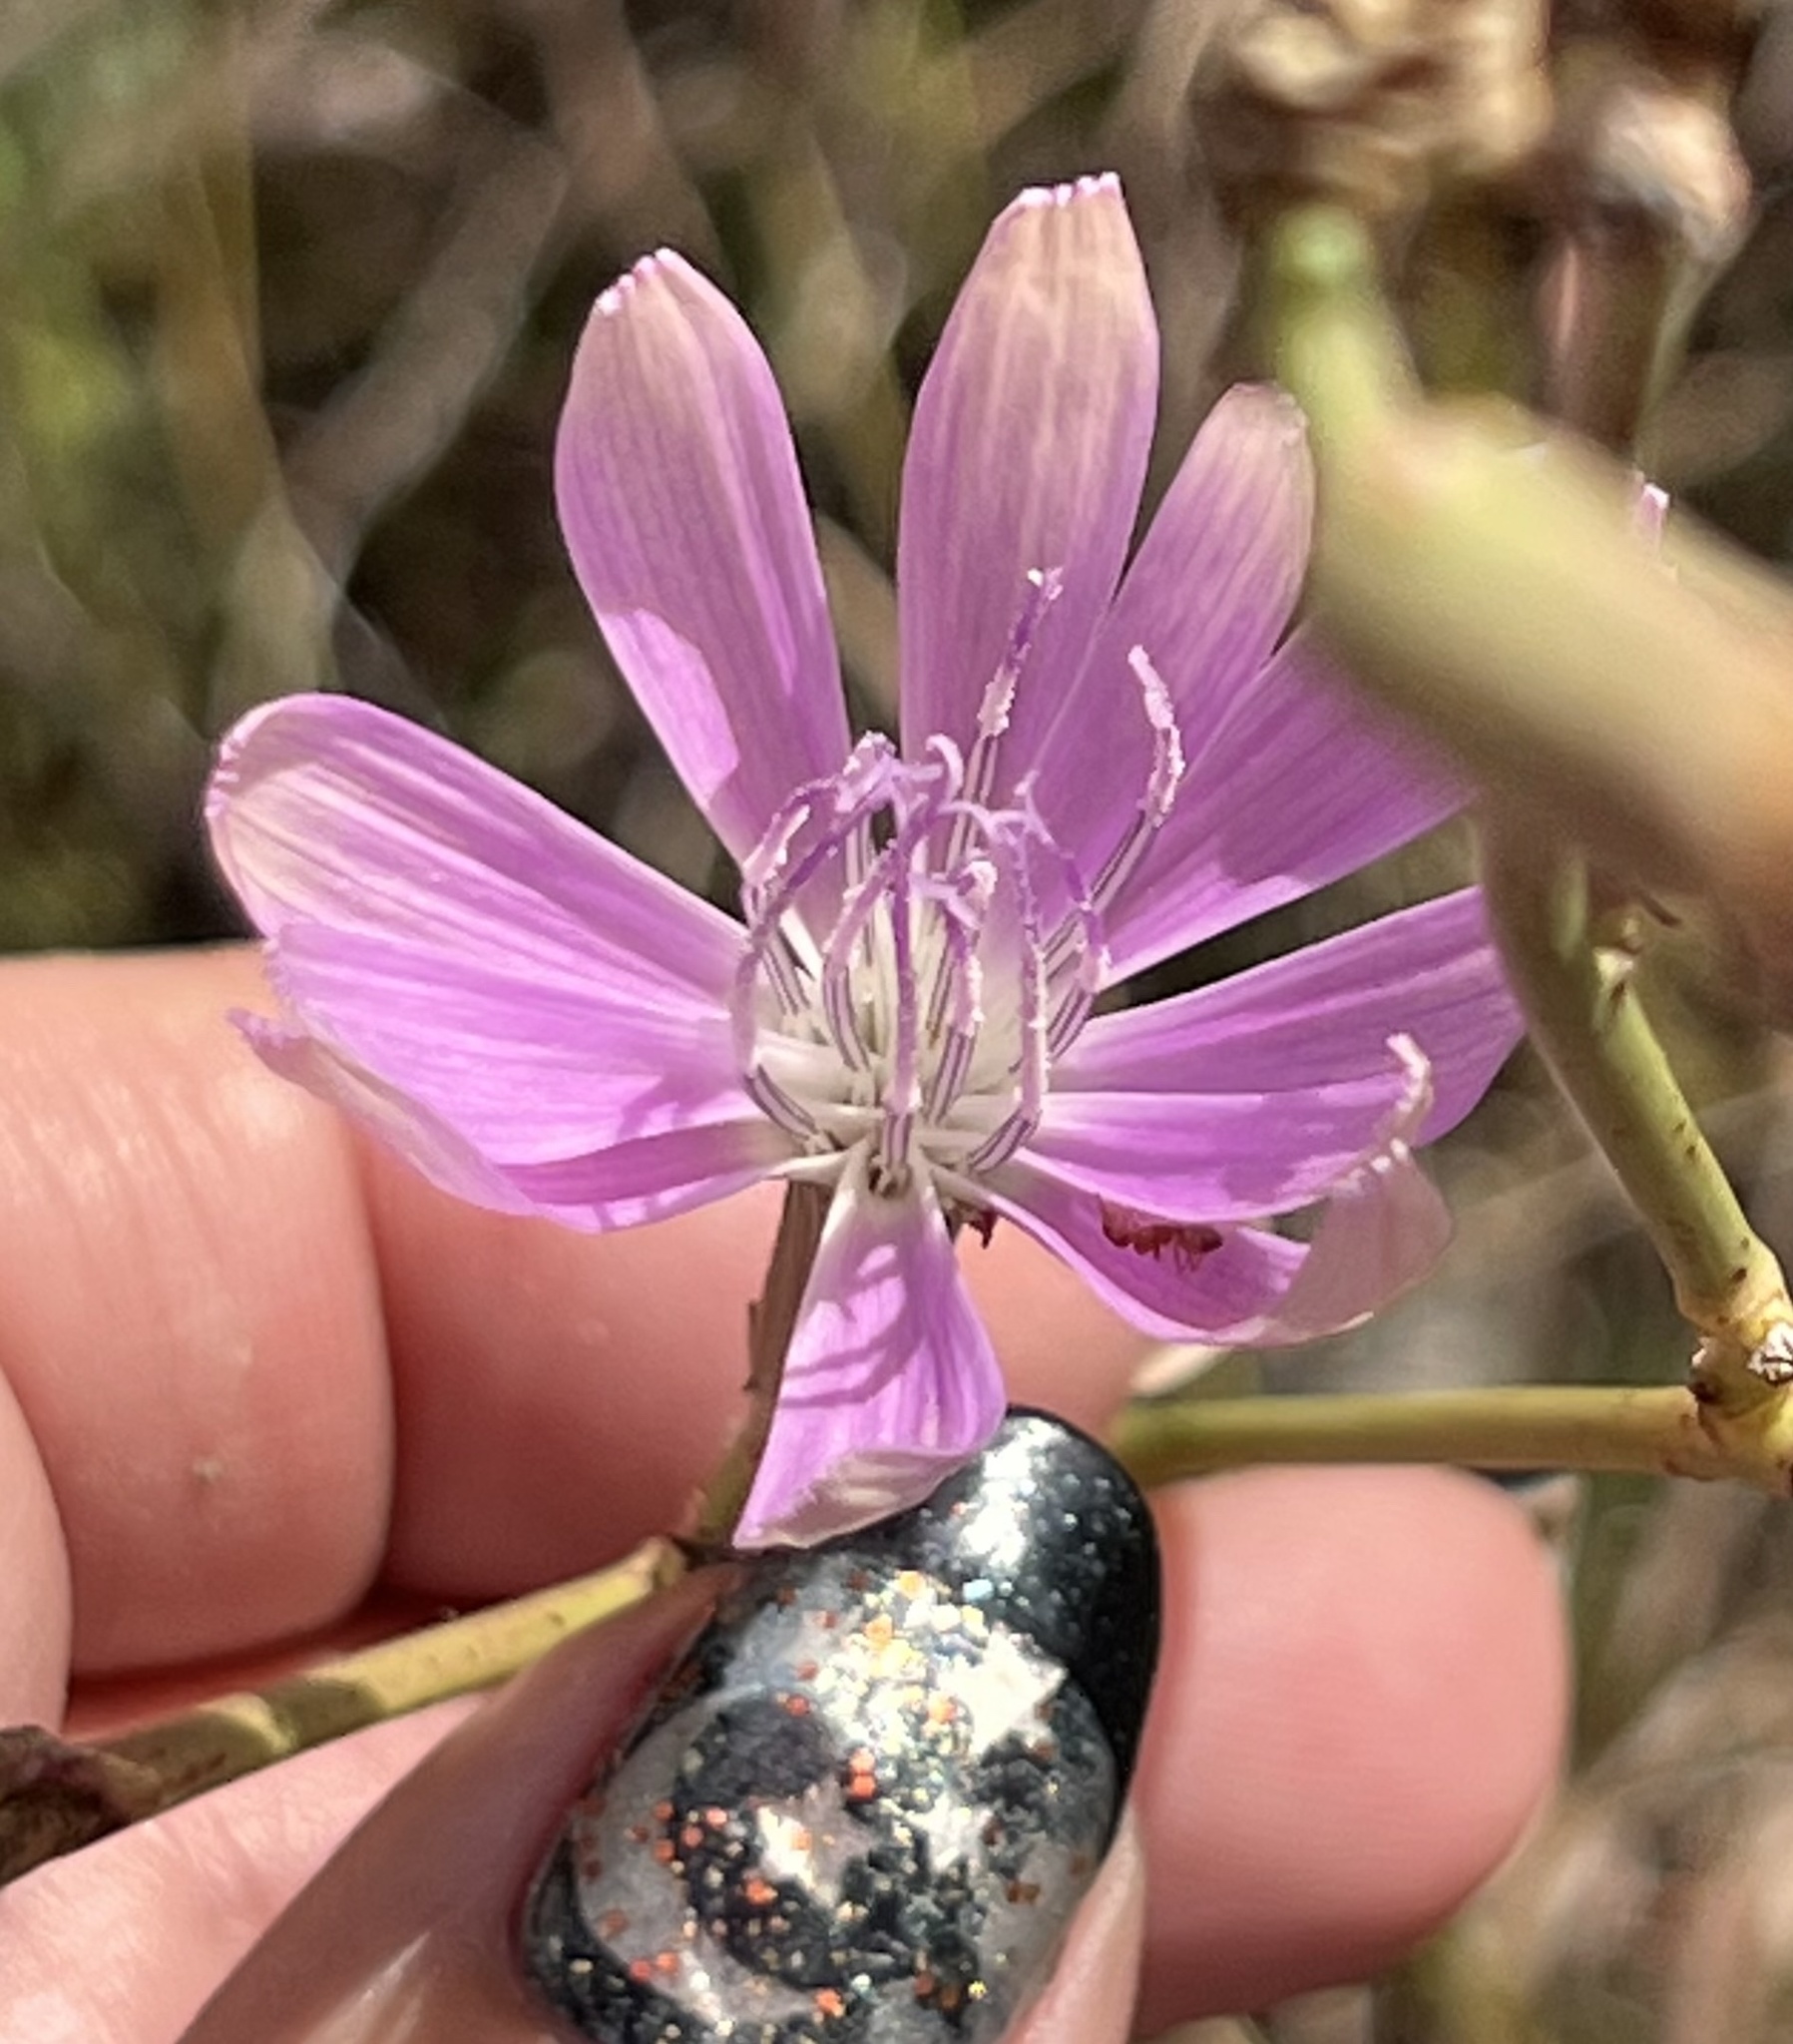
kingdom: Plantae
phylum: Tracheophyta
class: Magnoliopsida
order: Asterales
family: Asteraceae
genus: Lygodesmia
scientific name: Lygodesmia texana
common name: Texas skeleton-plant
